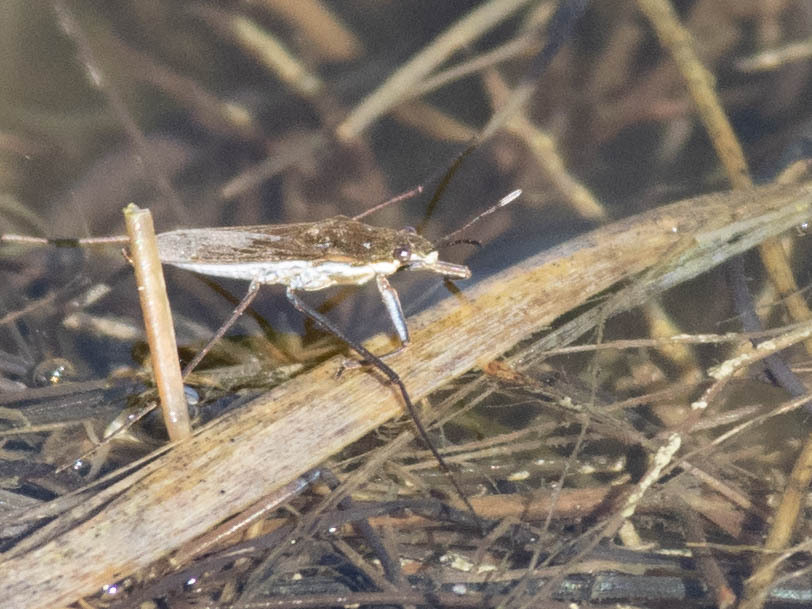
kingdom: Animalia
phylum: Arthropoda
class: Insecta
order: Hemiptera
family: Gerridae
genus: Gerris
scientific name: Gerris
